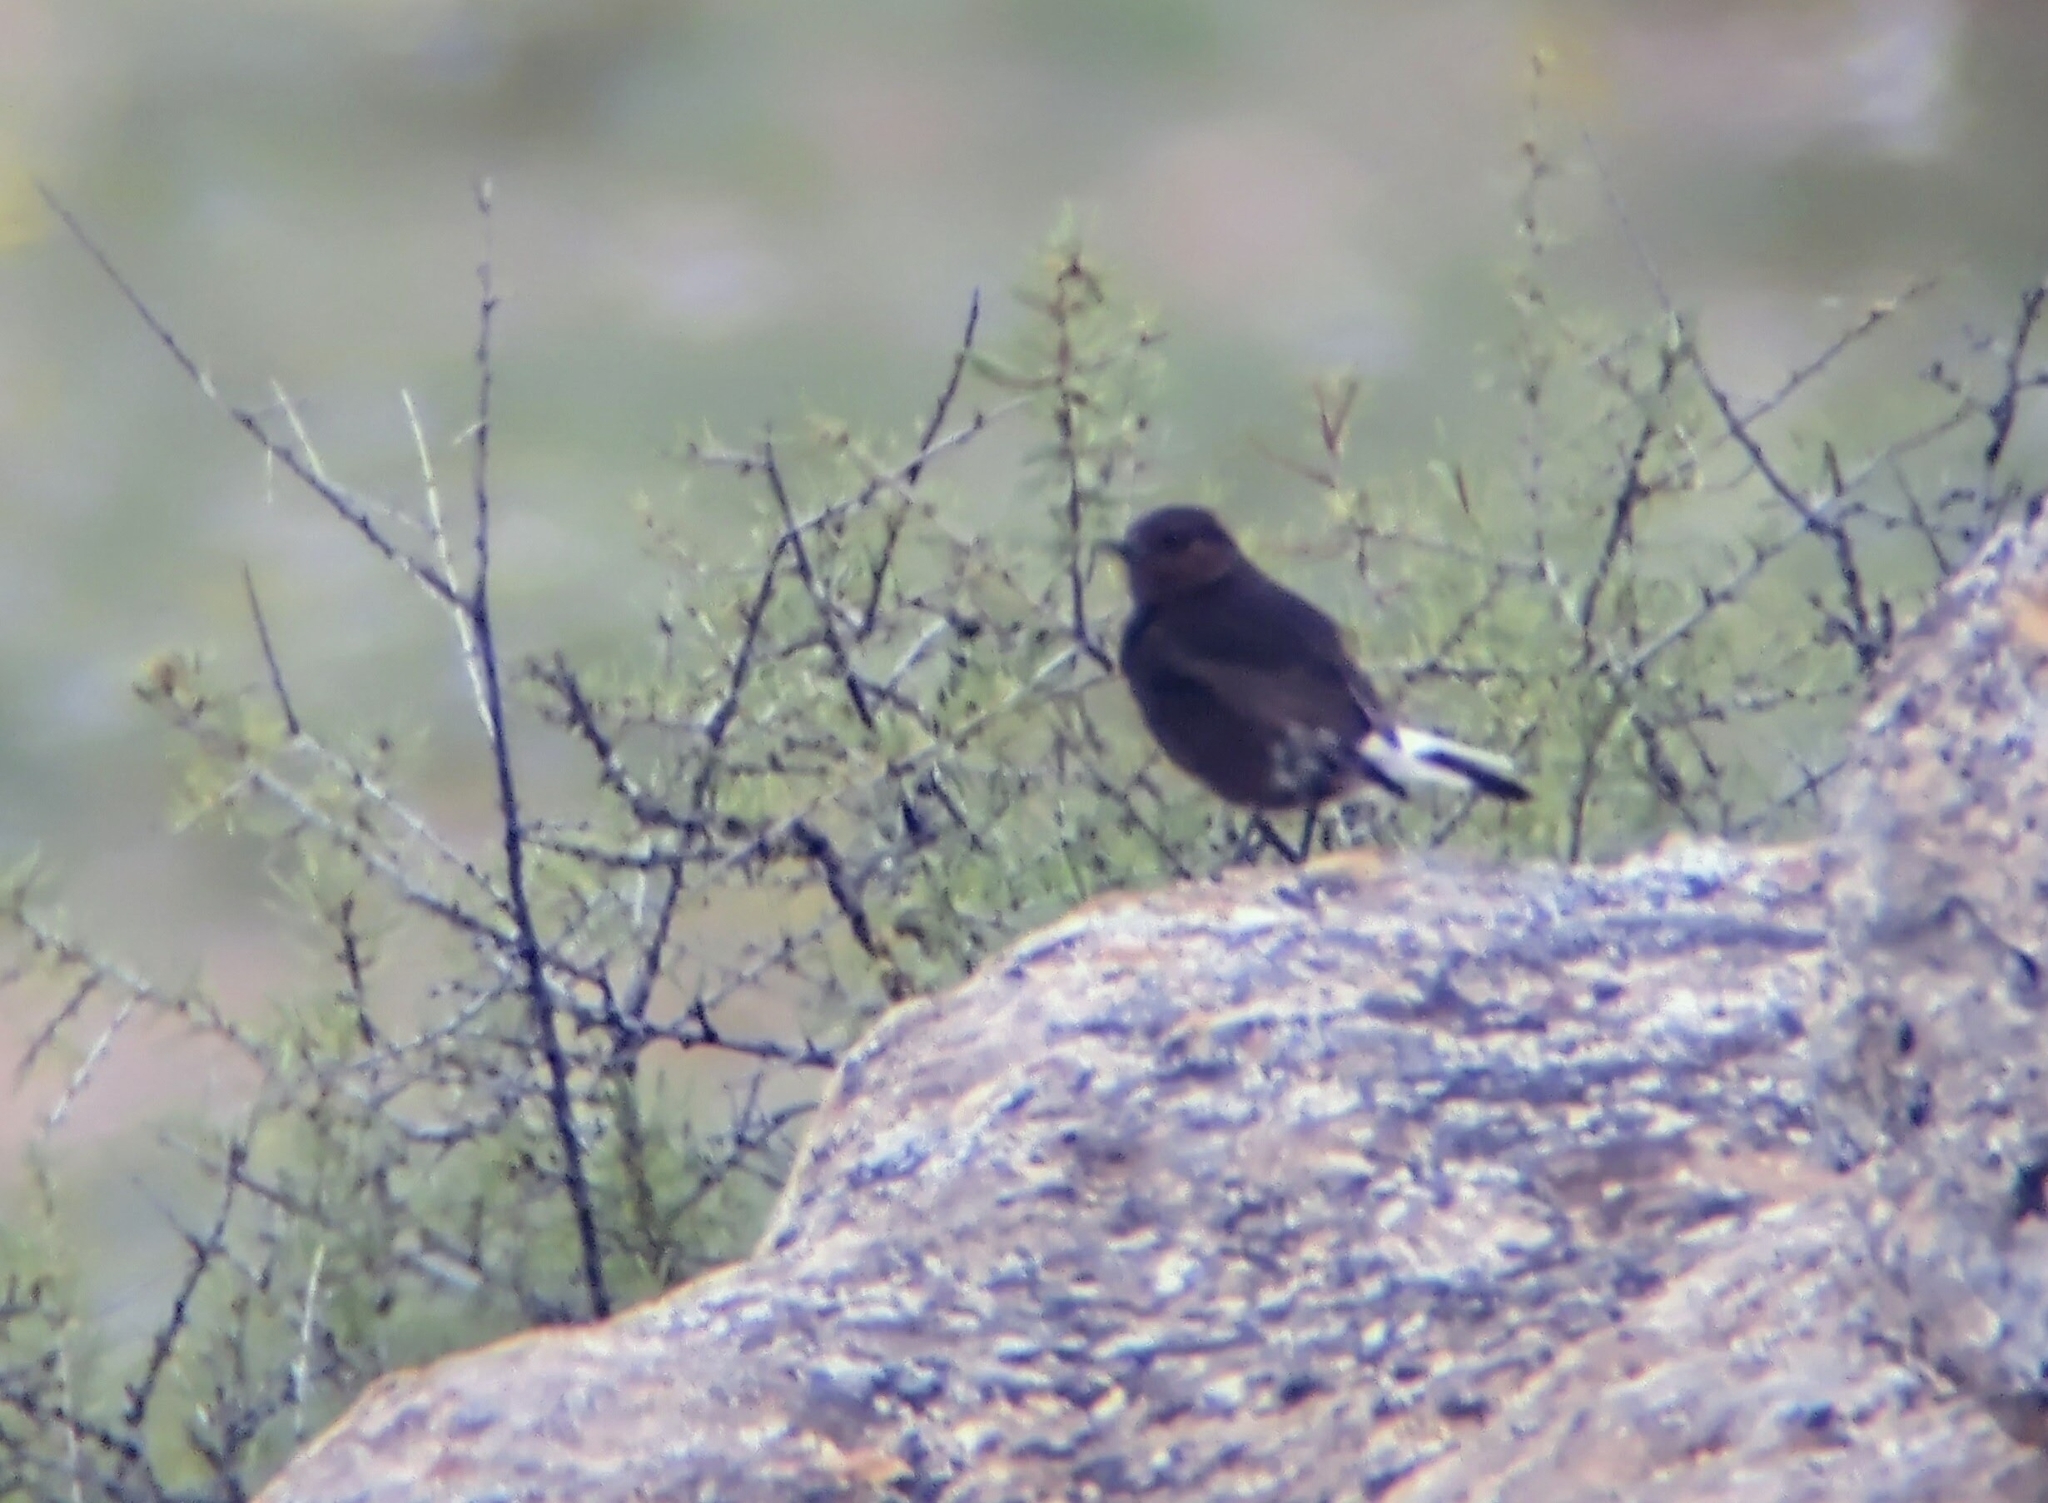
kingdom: Animalia
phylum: Chordata
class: Aves
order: Passeriformes
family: Muscicapidae
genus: Oenanthe
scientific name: Oenanthe leucura
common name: Black wheatear
